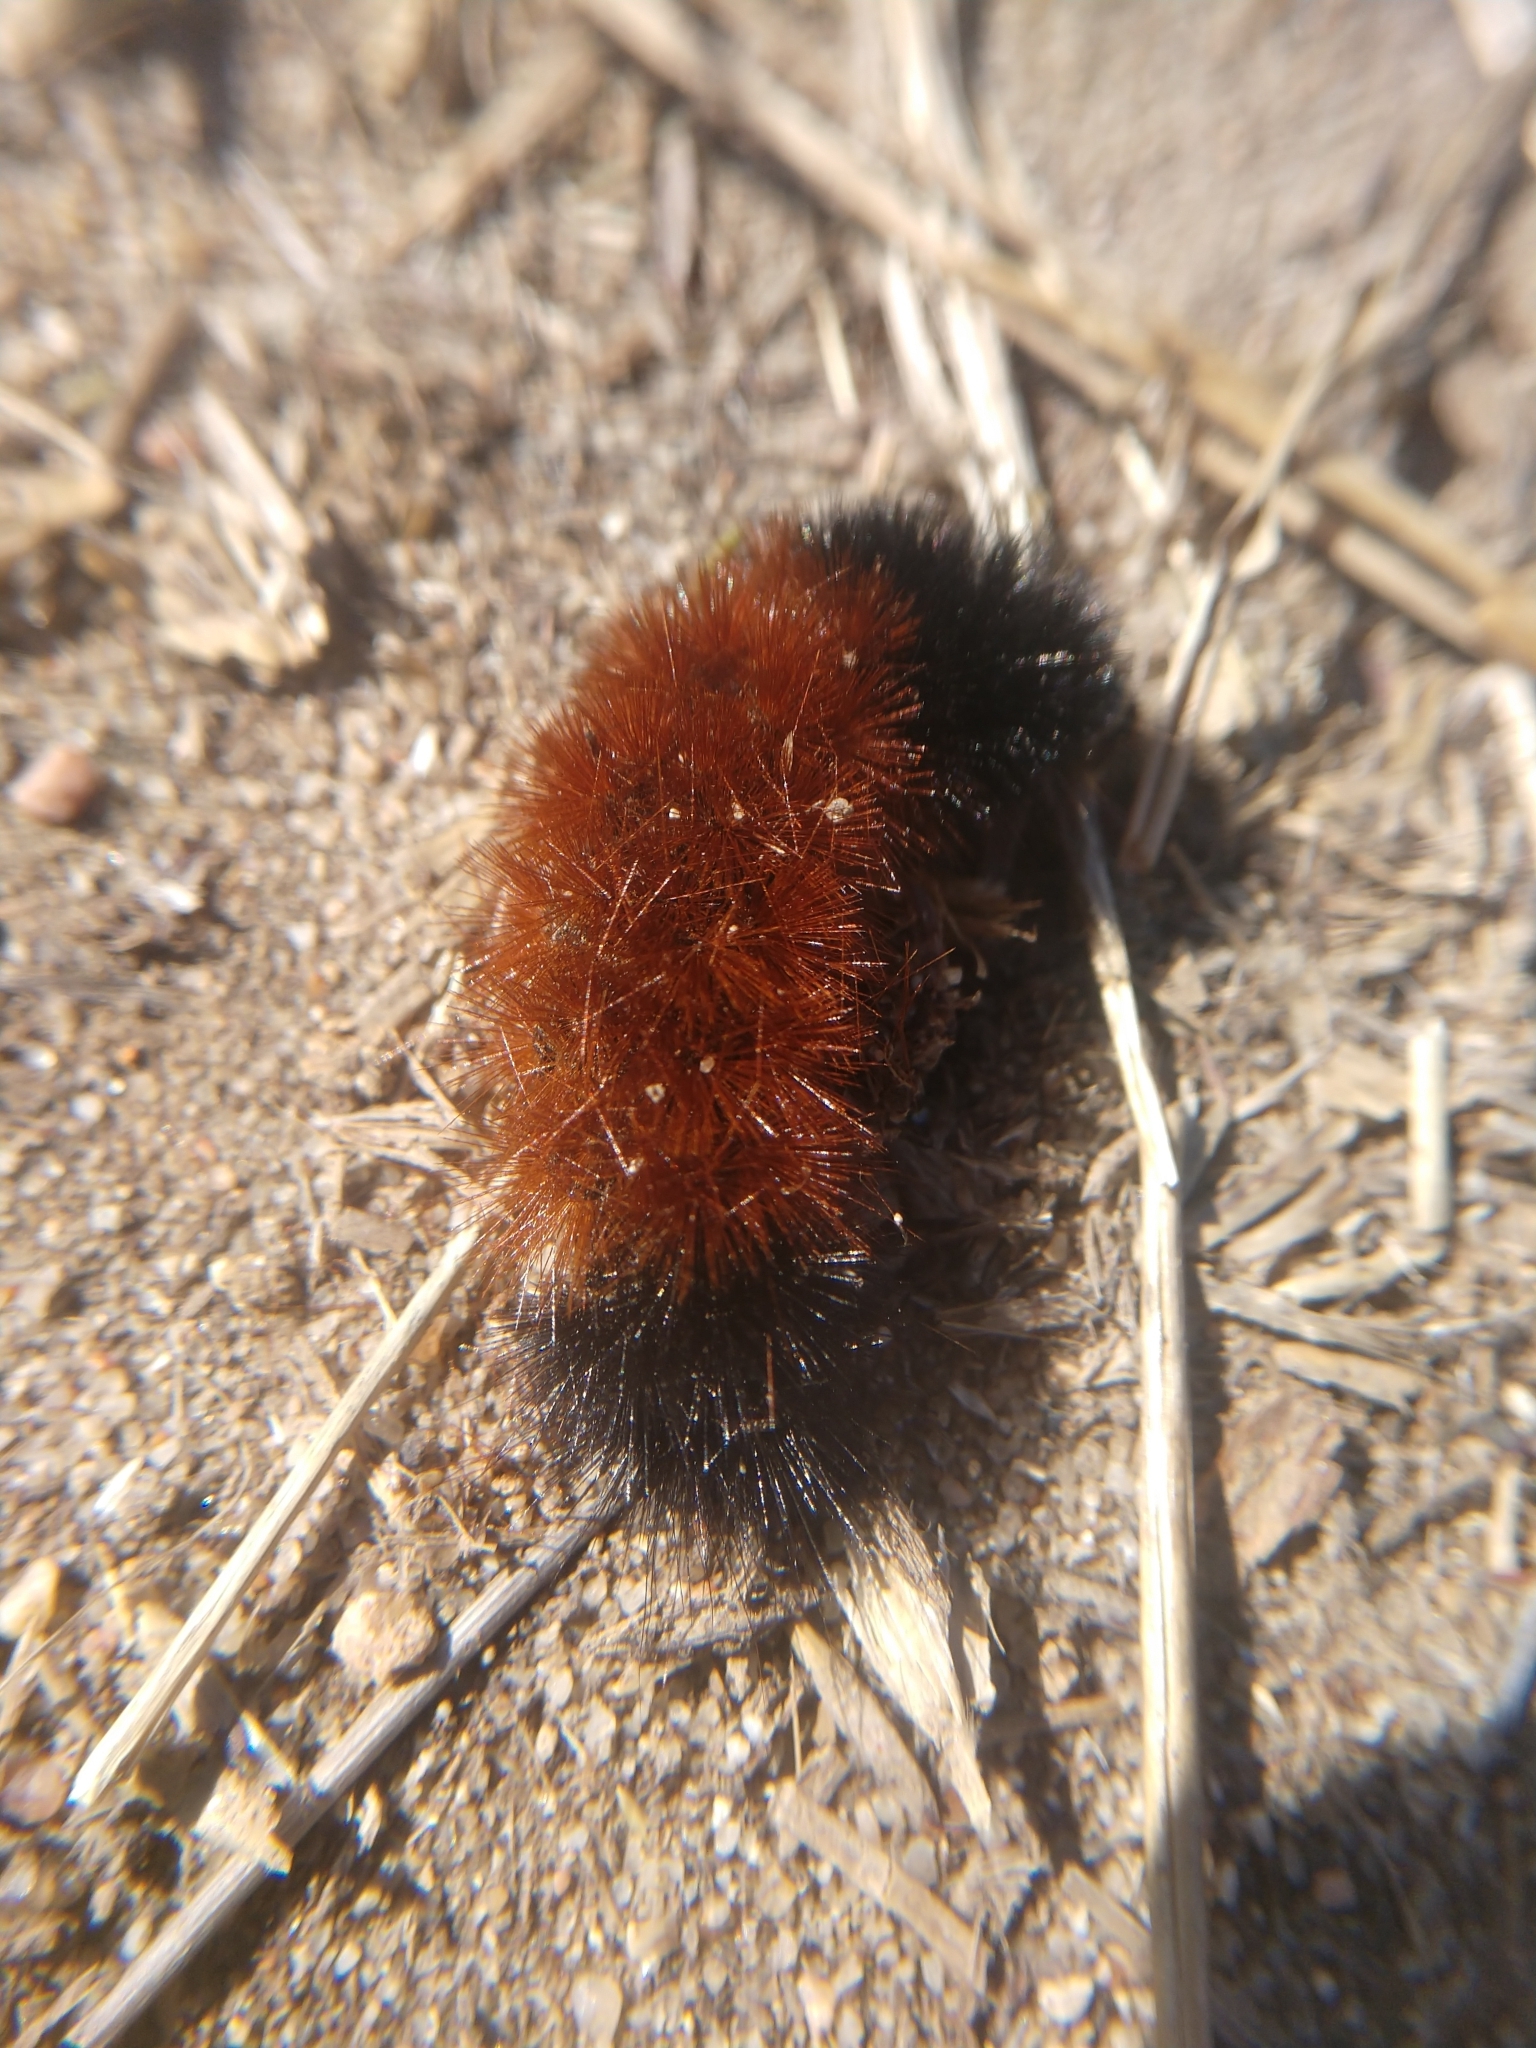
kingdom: Animalia
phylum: Arthropoda
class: Insecta
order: Lepidoptera
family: Erebidae
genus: Pyrrharctia
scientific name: Pyrrharctia isabella
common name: Isabella tiger moth
